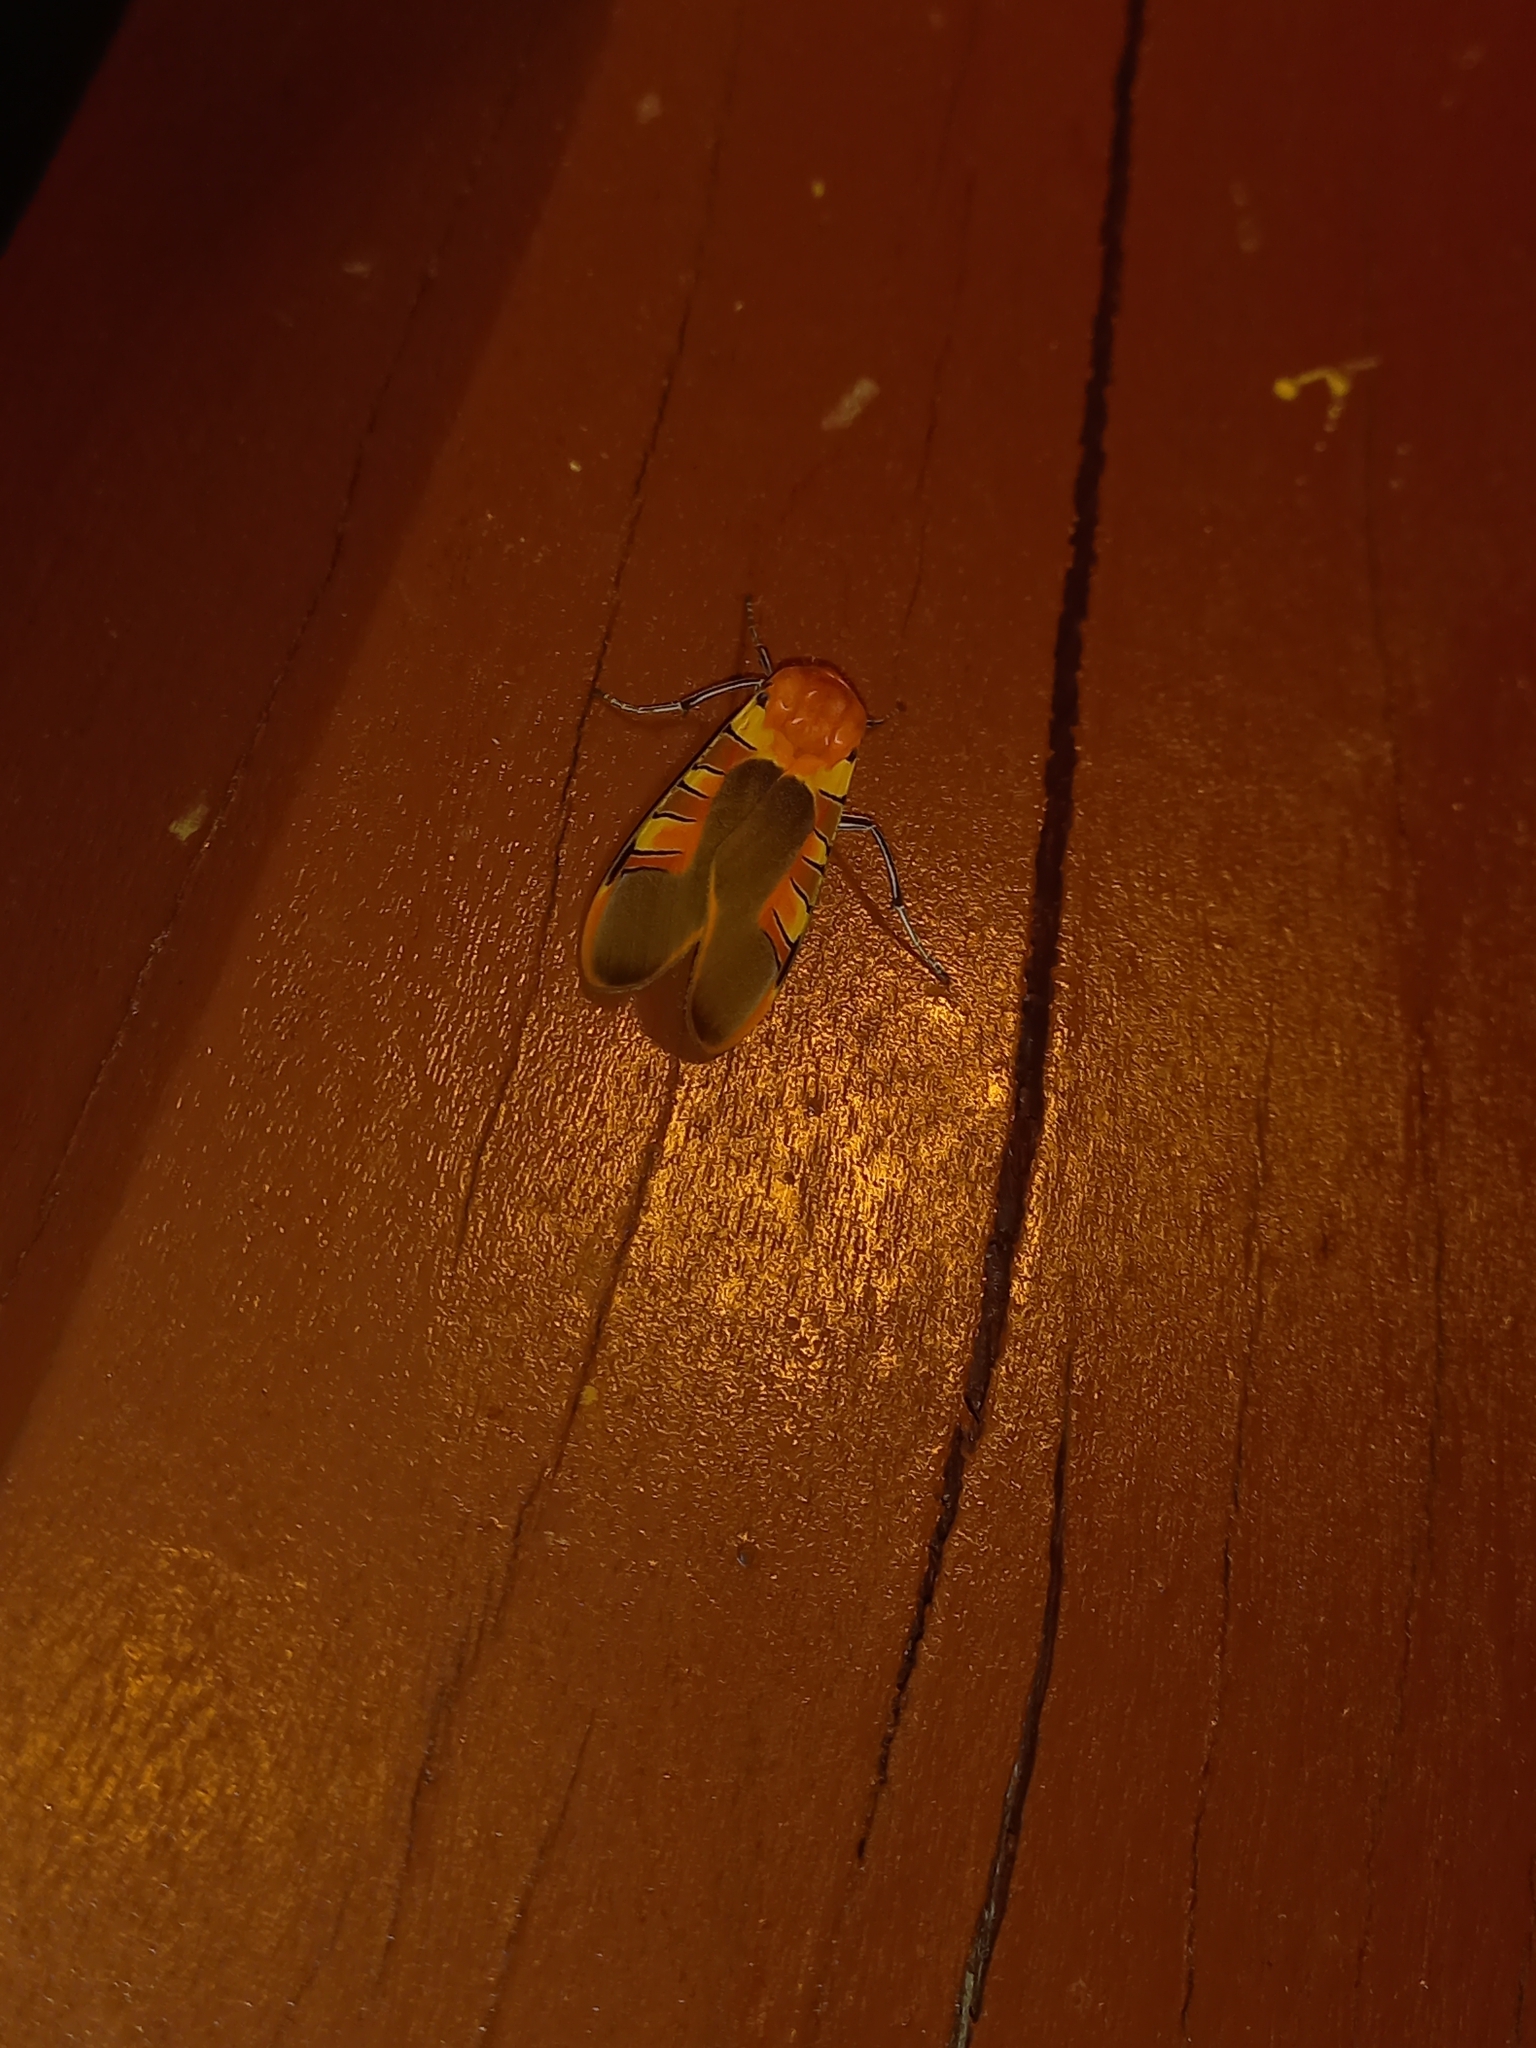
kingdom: Animalia
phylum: Arthropoda
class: Insecta
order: Lepidoptera
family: Erebidae
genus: Gorgonidia
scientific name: Gorgonidia vulcania
